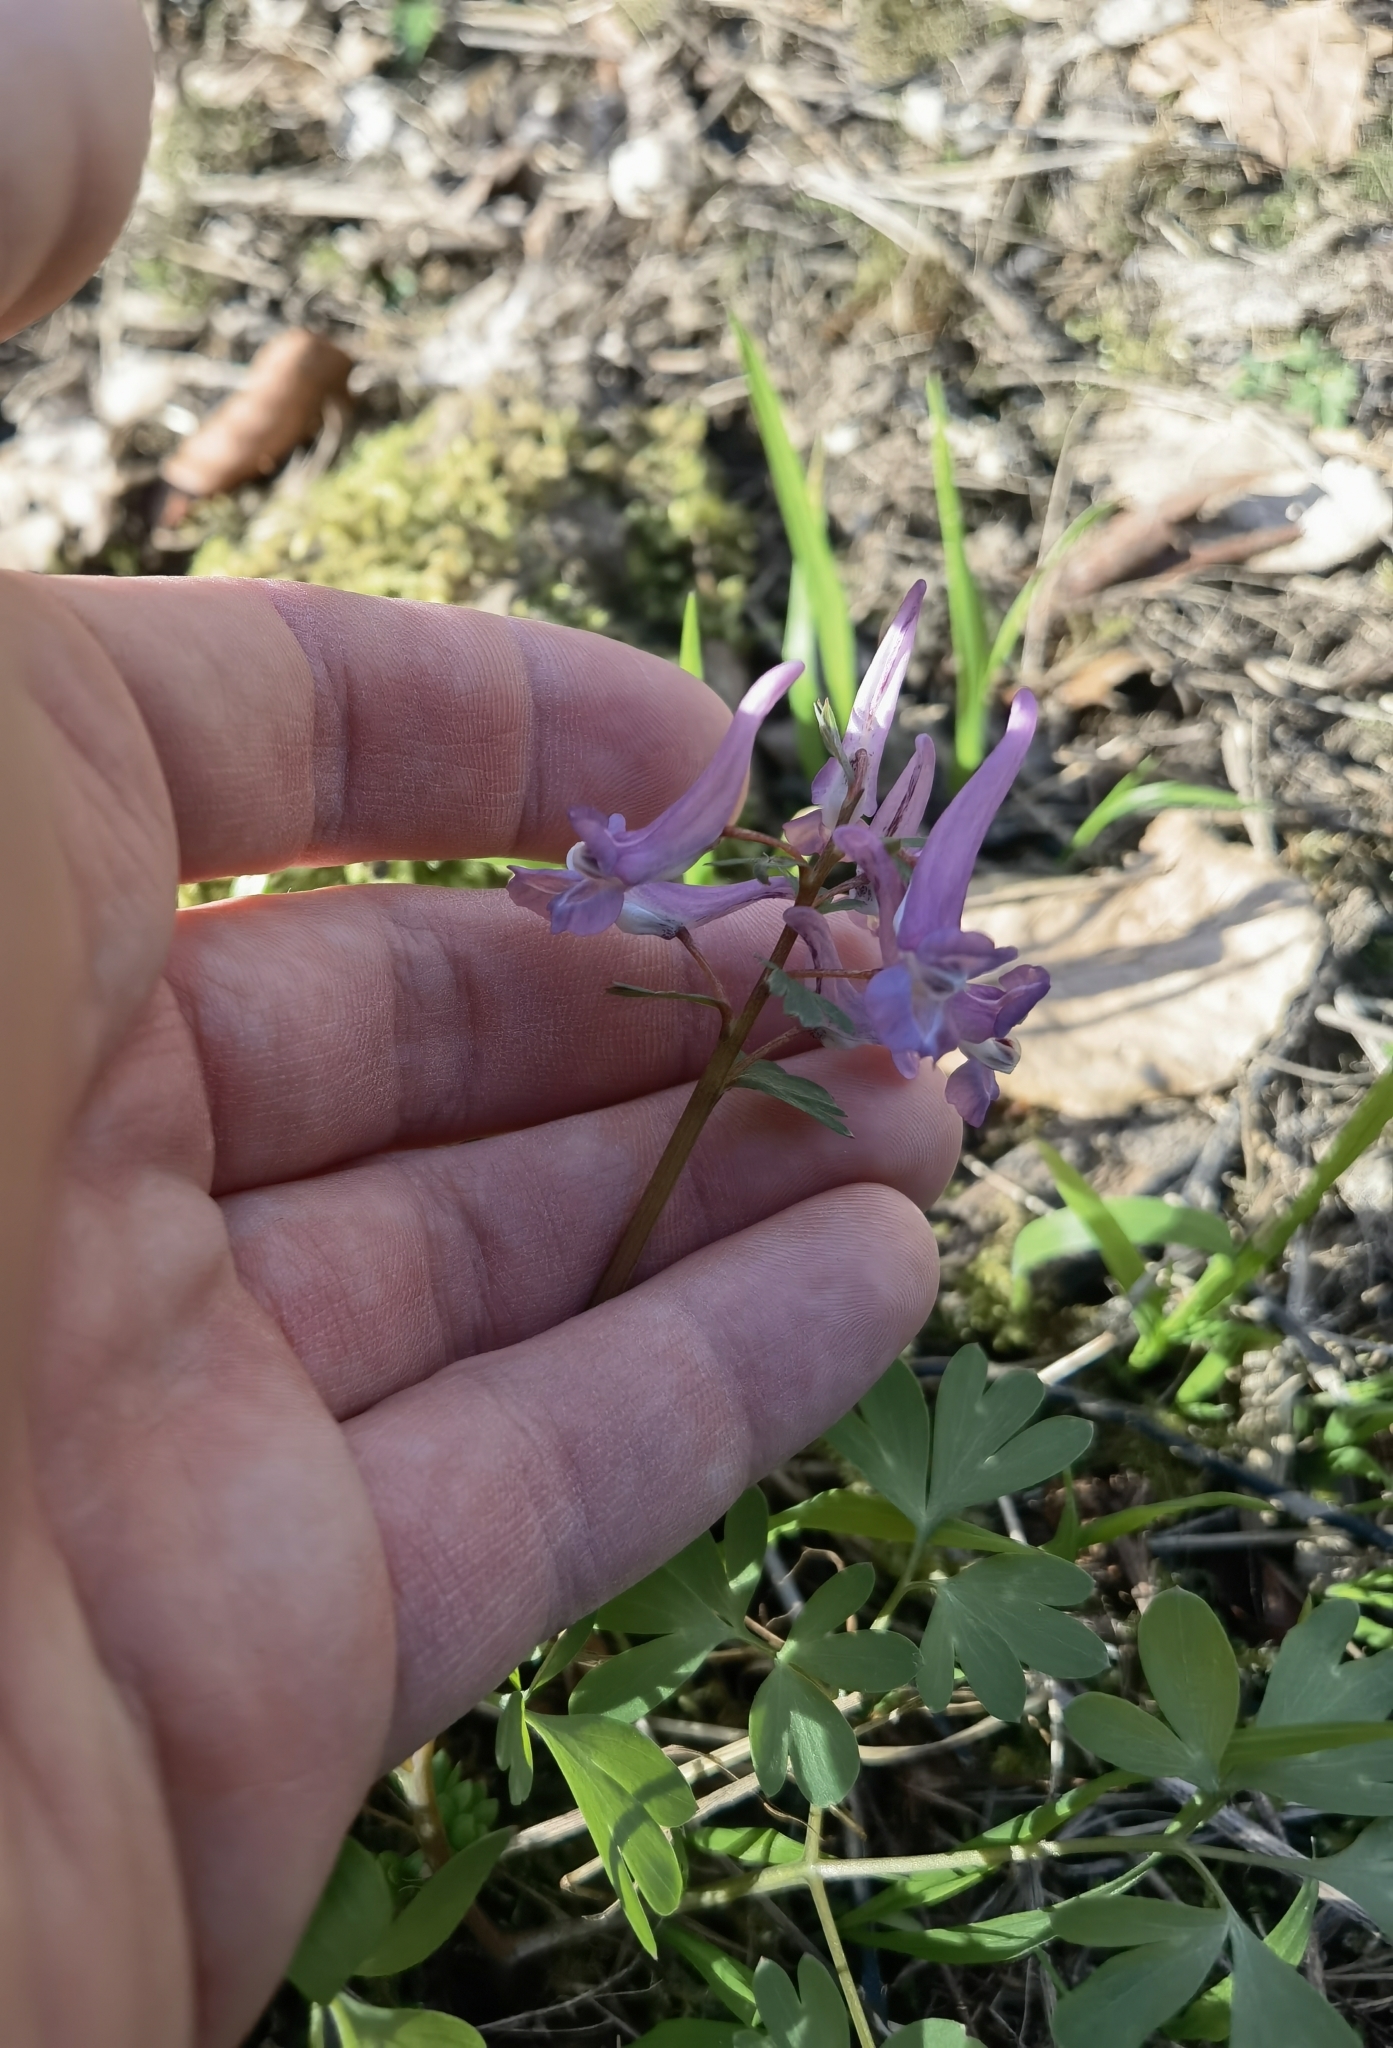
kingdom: Plantae
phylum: Tracheophyta
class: Magnoliopsida
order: Ranunculales
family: Papaveraceae
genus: Corydalis
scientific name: Corydalis solida
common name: Bird-in-a-bush
